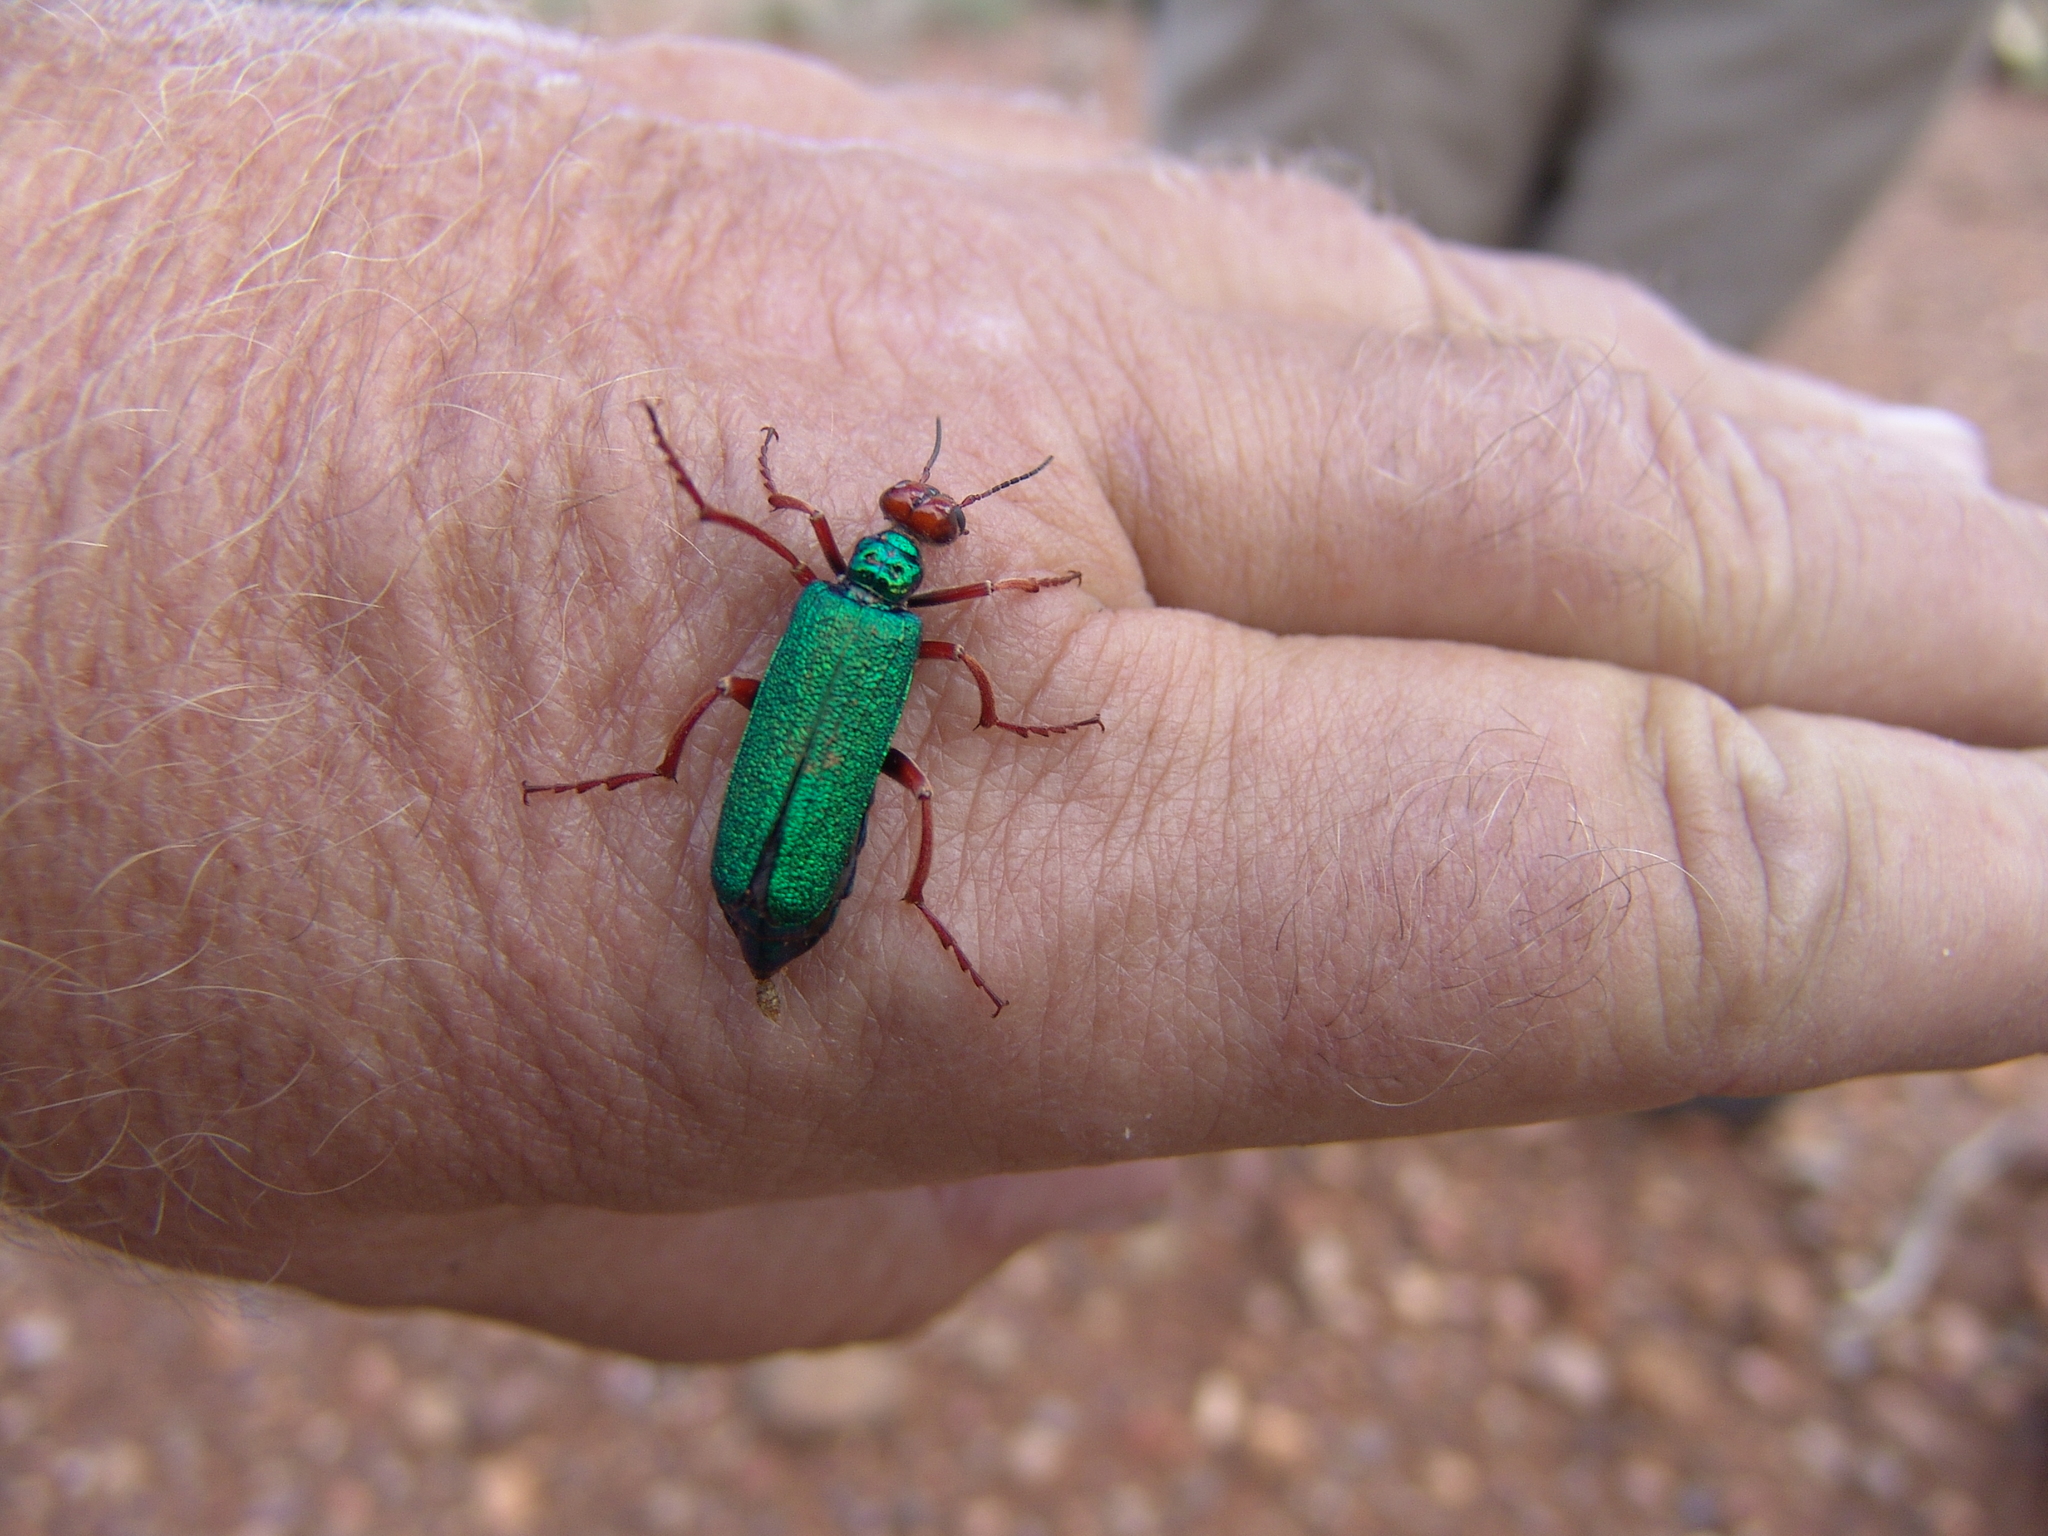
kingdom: Animalia
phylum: Arthropoda
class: Insecta
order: Coleoptera
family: Meloidae
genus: Eupompha
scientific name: Eupompha fissiceps
